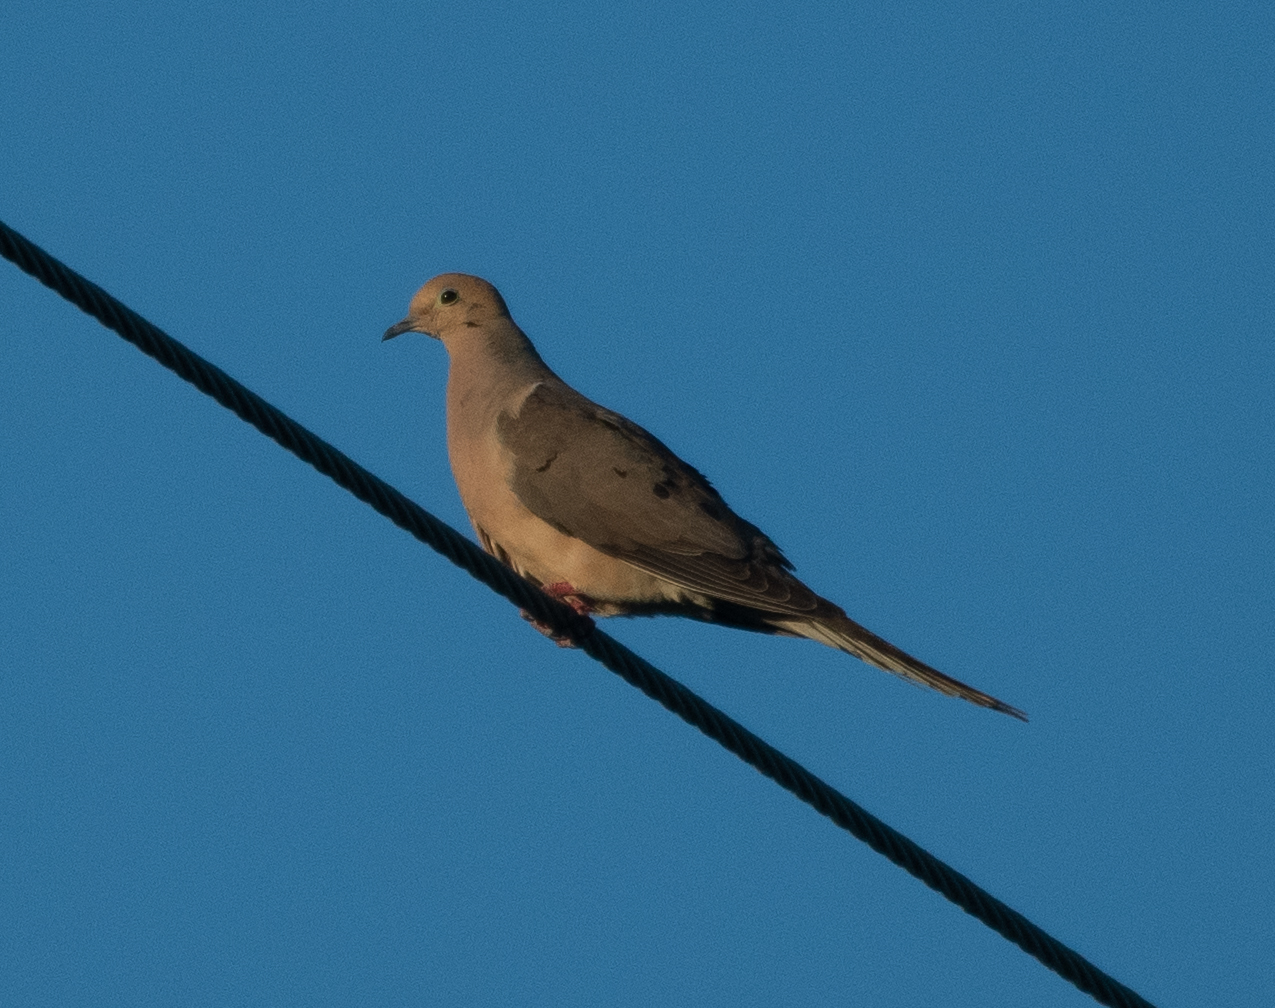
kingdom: Animalia
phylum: Chordata
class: Aves
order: Columbiformes
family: Columbidae
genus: Zenaida
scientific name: Zenaida macroura
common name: Mourning dove
